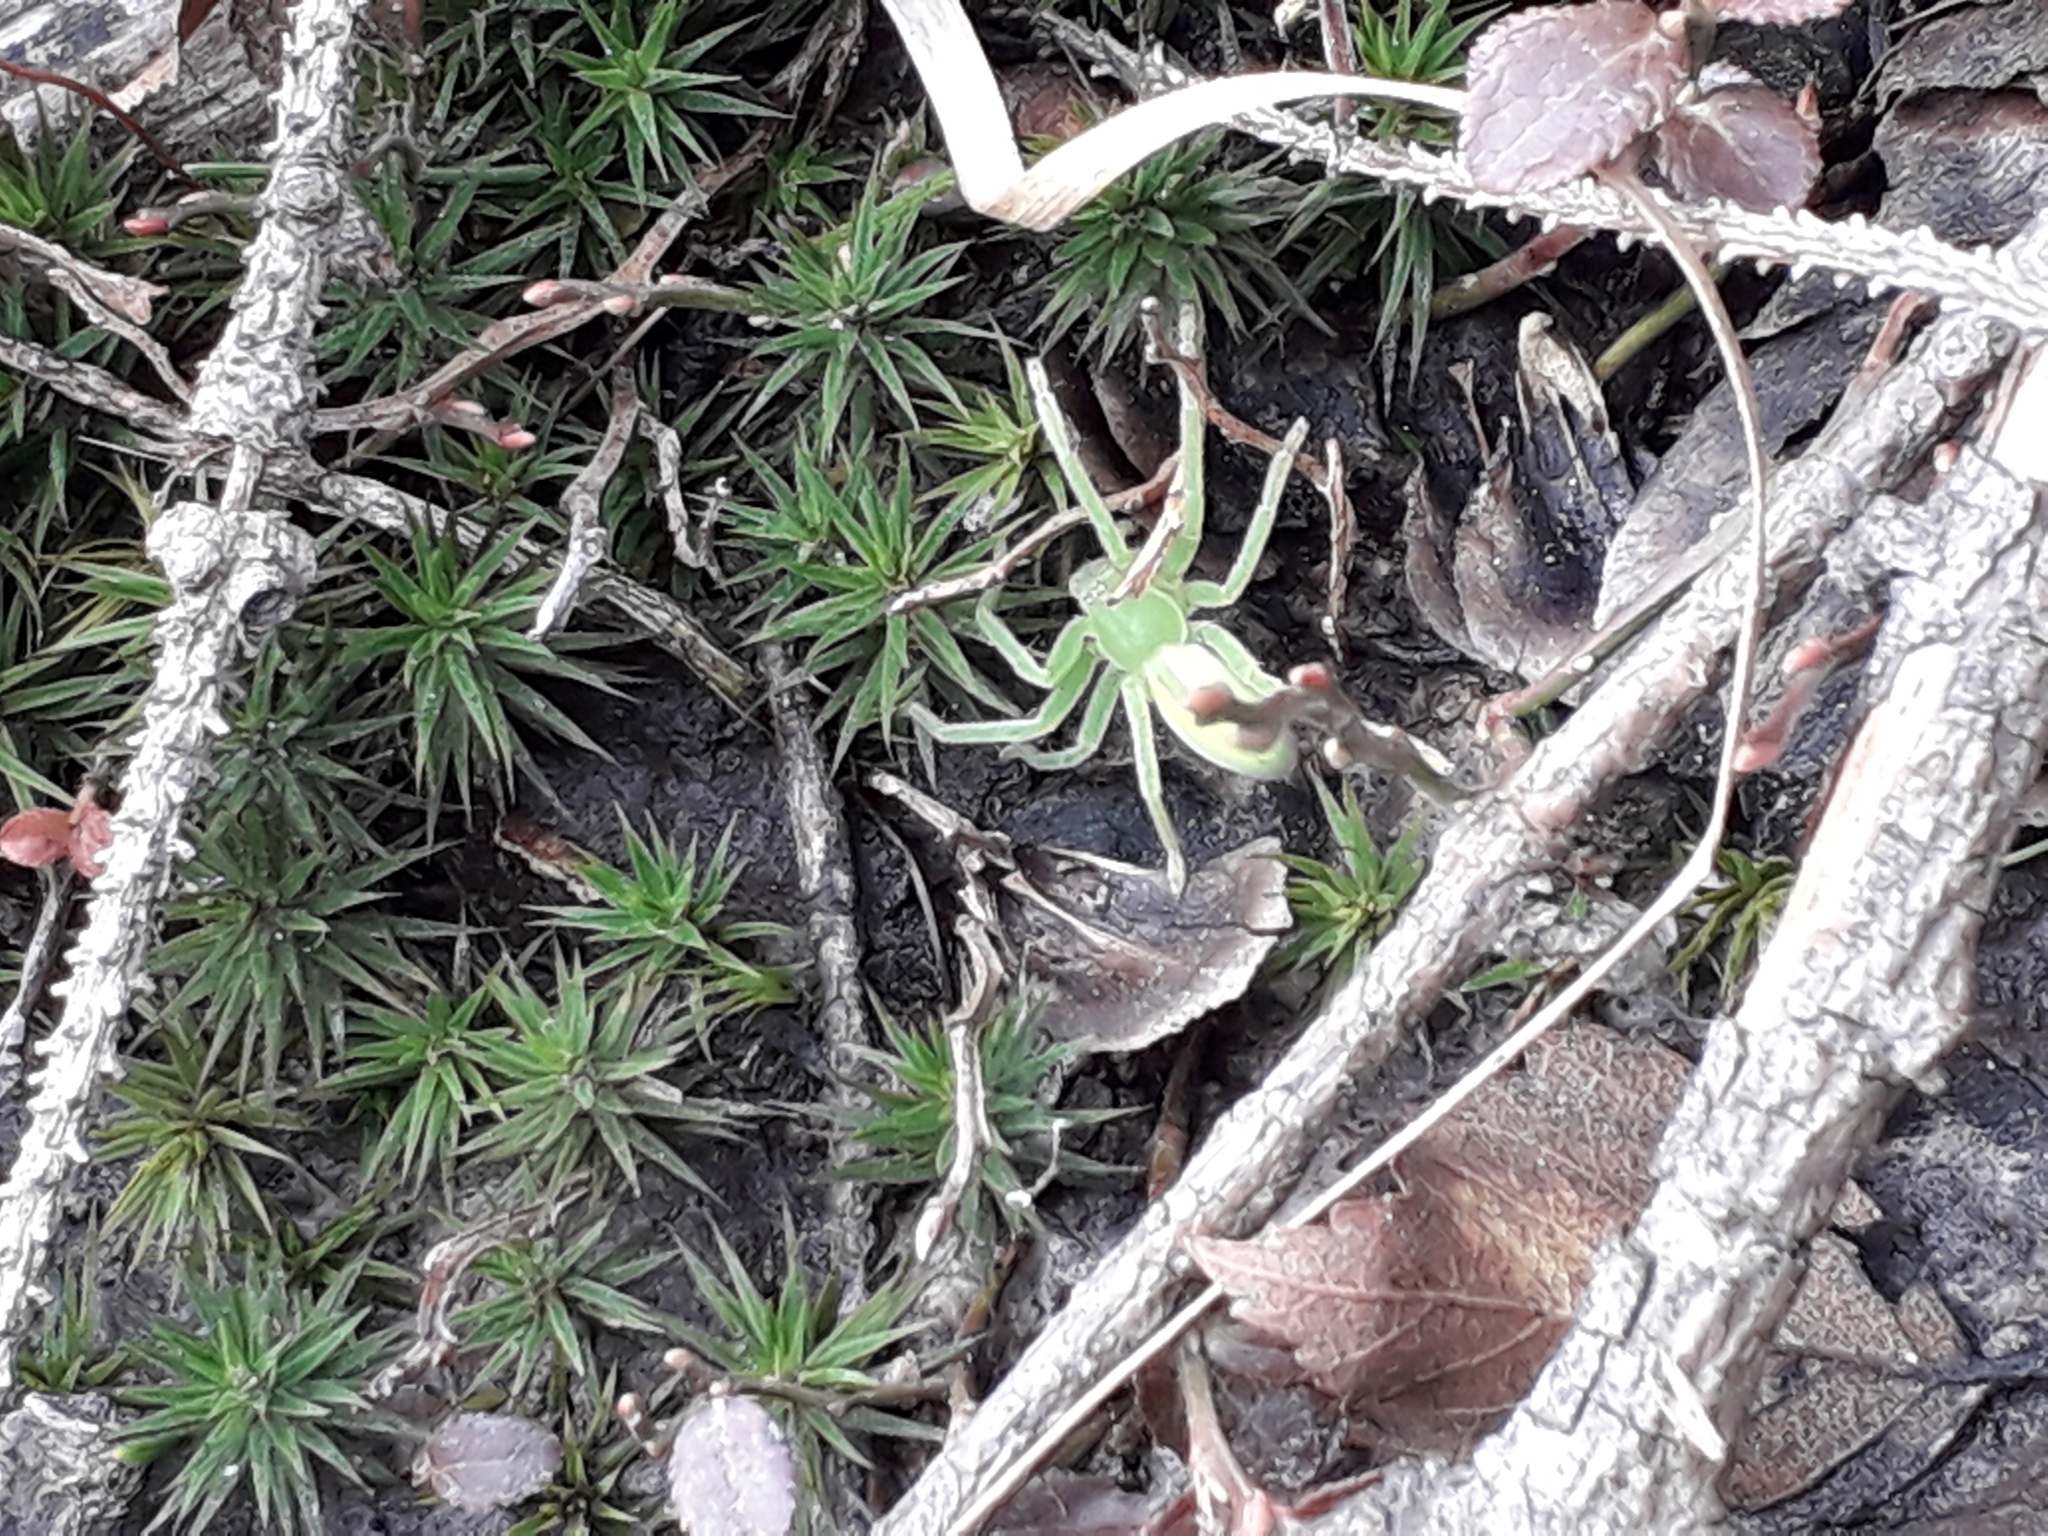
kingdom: Animalia
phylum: Arthropoda
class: Arachnida
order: Araneae
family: Sparassidae
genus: Micrommata
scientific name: Micrommata virescens
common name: Green spider
